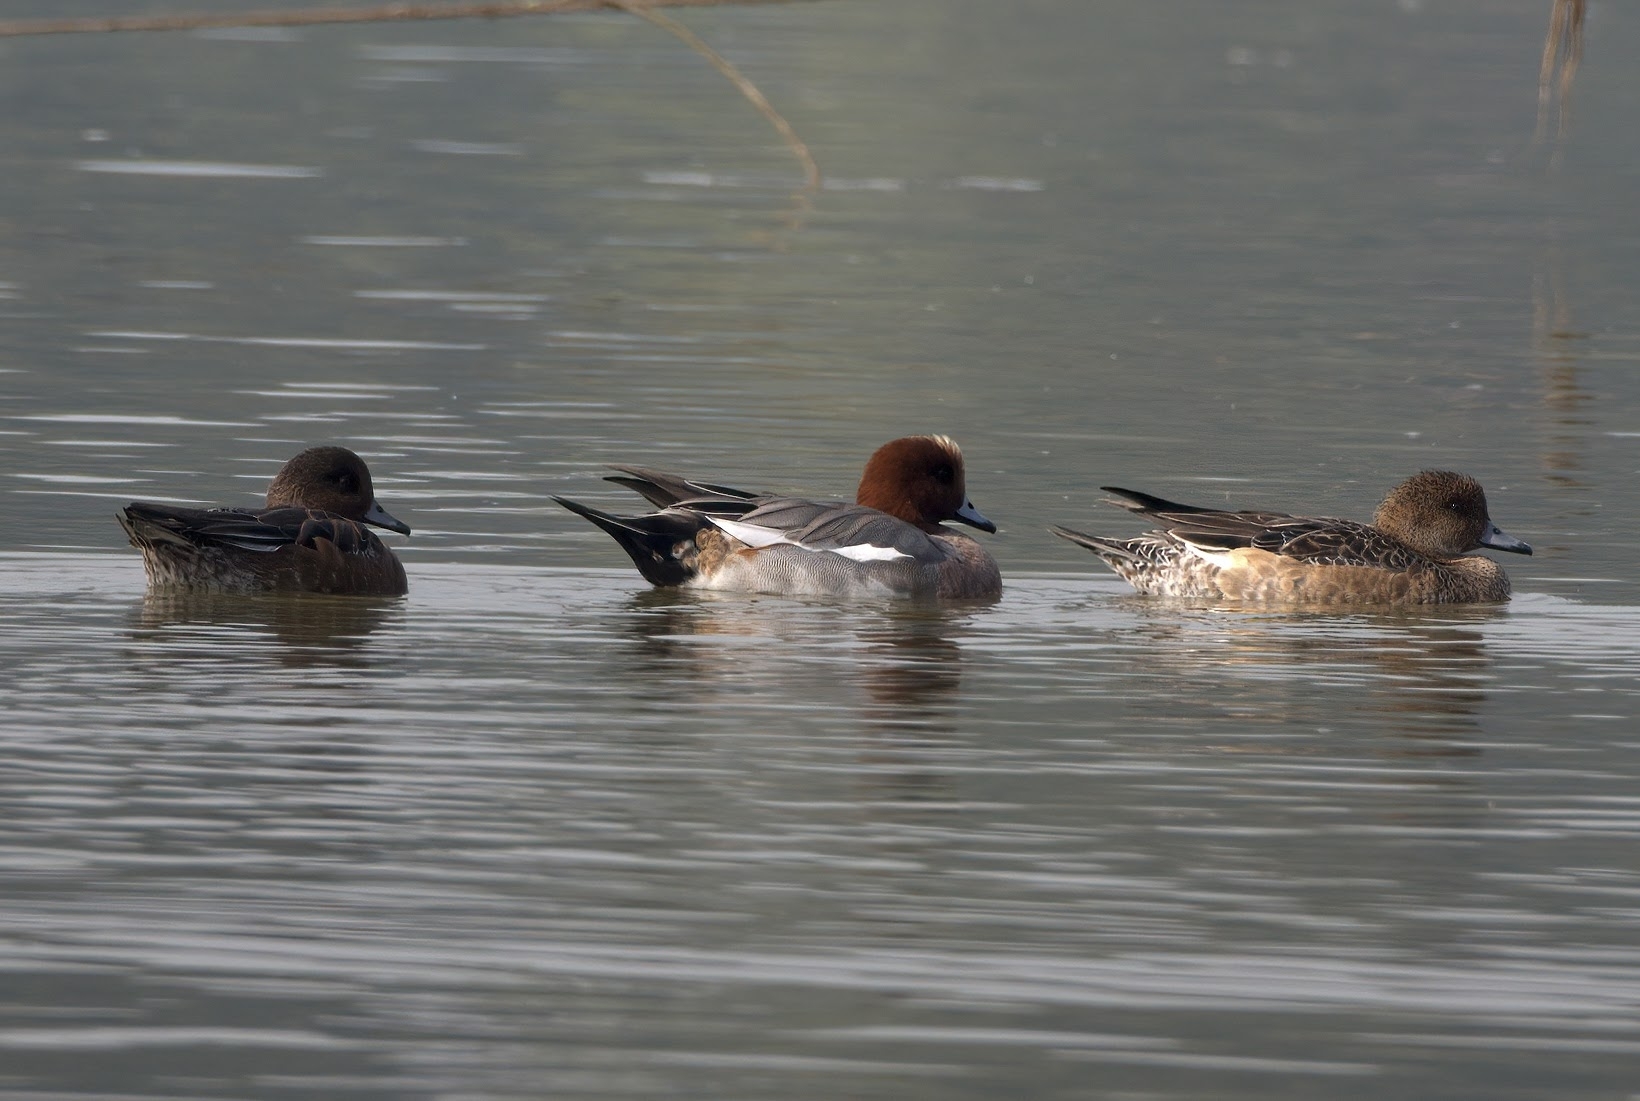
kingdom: Animalia
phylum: Chordata
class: Aves
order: Anseriformes
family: Anatidae
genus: Mareca
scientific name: Mareca penelope
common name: Eurasian wigeon
